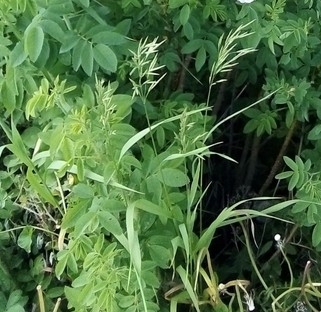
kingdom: Plantae
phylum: Tracheophyta
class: Liliopsida
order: Poales
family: Poaceae
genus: Bromus
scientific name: Bromus inermis
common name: Smooth brome
